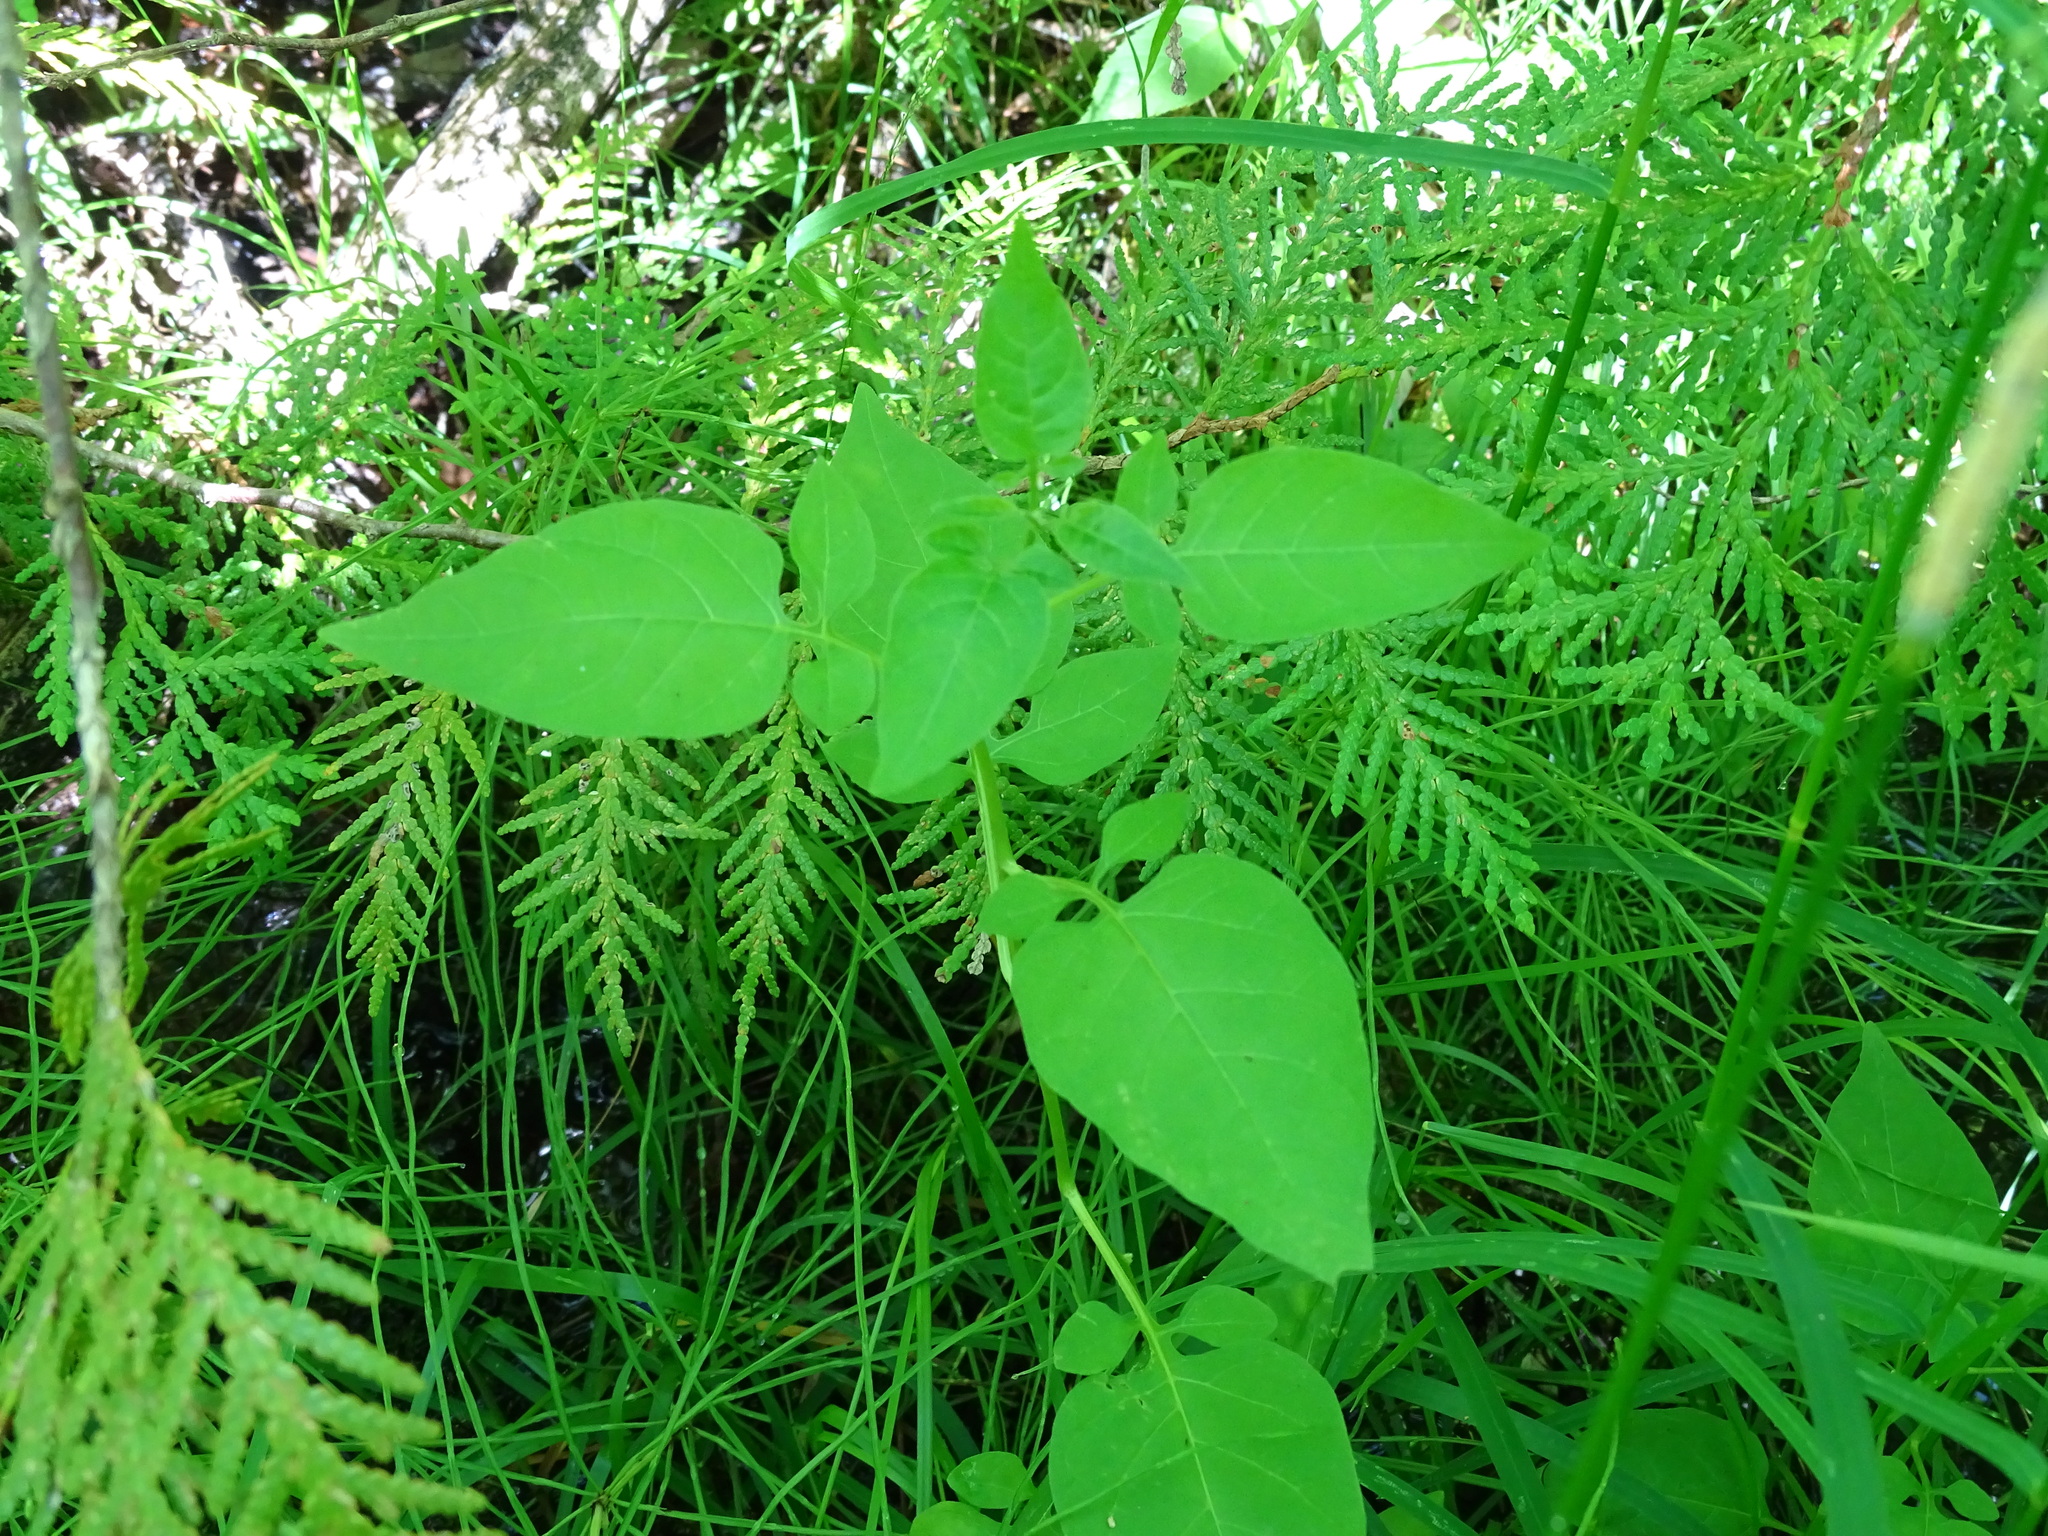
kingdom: Plantae
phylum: Tracheophyta
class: Magnoliopsida
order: Solanales
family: Solanaceae
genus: Solanum
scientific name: Solanum dulcamara
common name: Climbing nightshade
